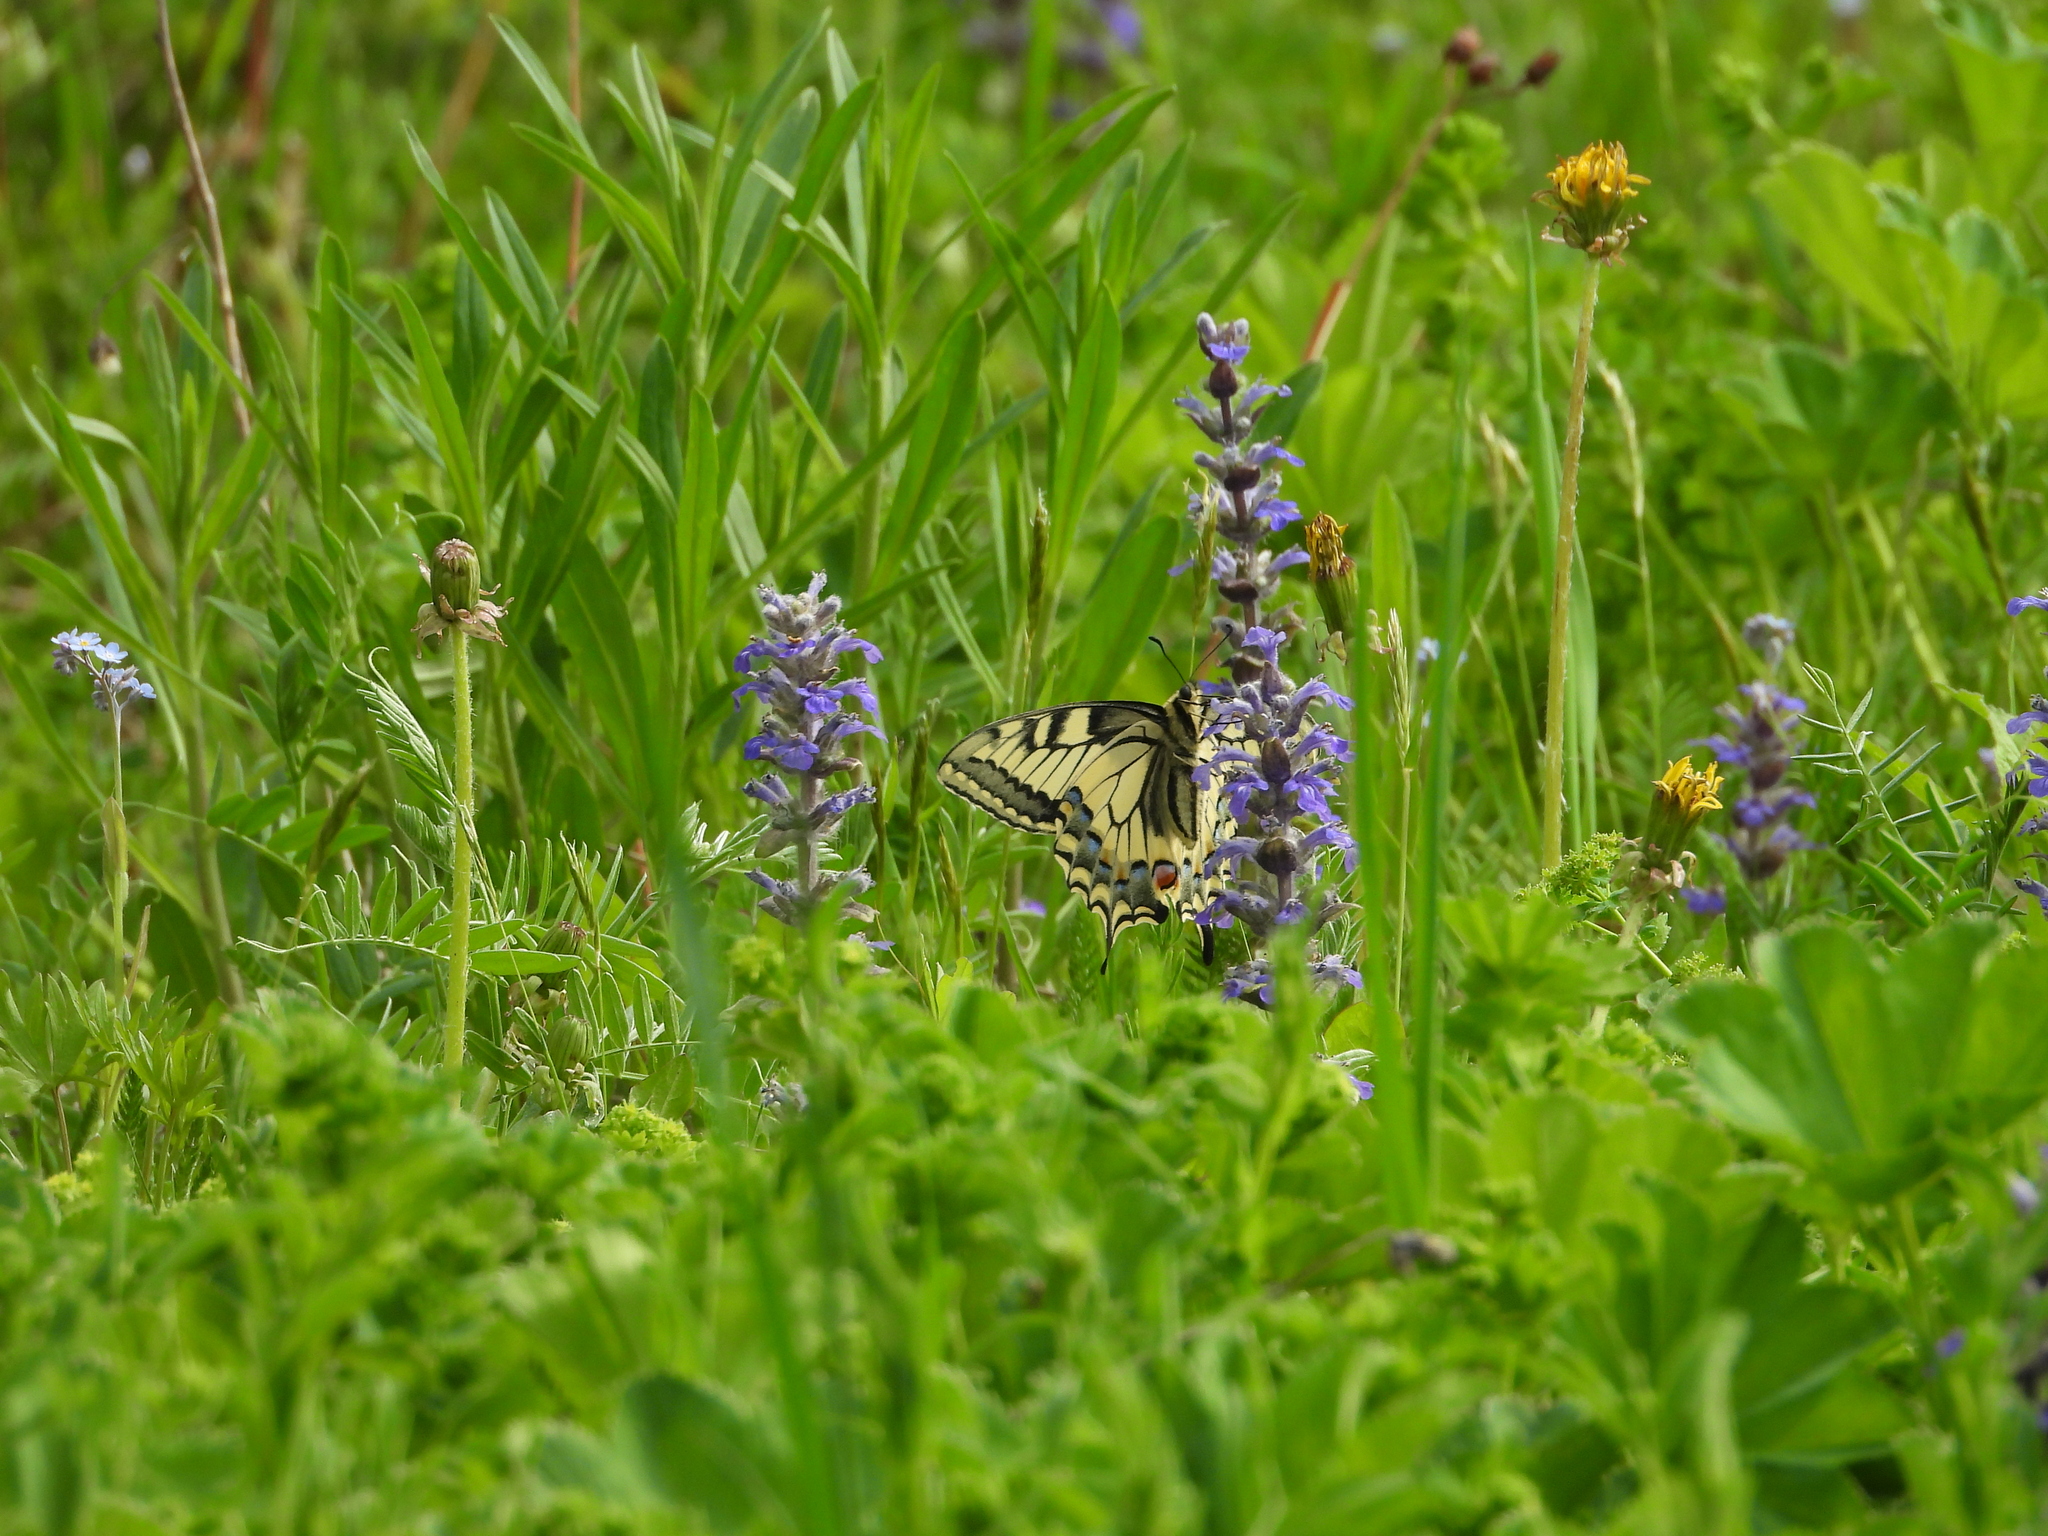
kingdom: Animalia
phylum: Arthropoda
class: Insecta
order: Lepidoptera
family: Papilionidae
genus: Papilio
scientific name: Papilio machaon
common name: Swallowtail
